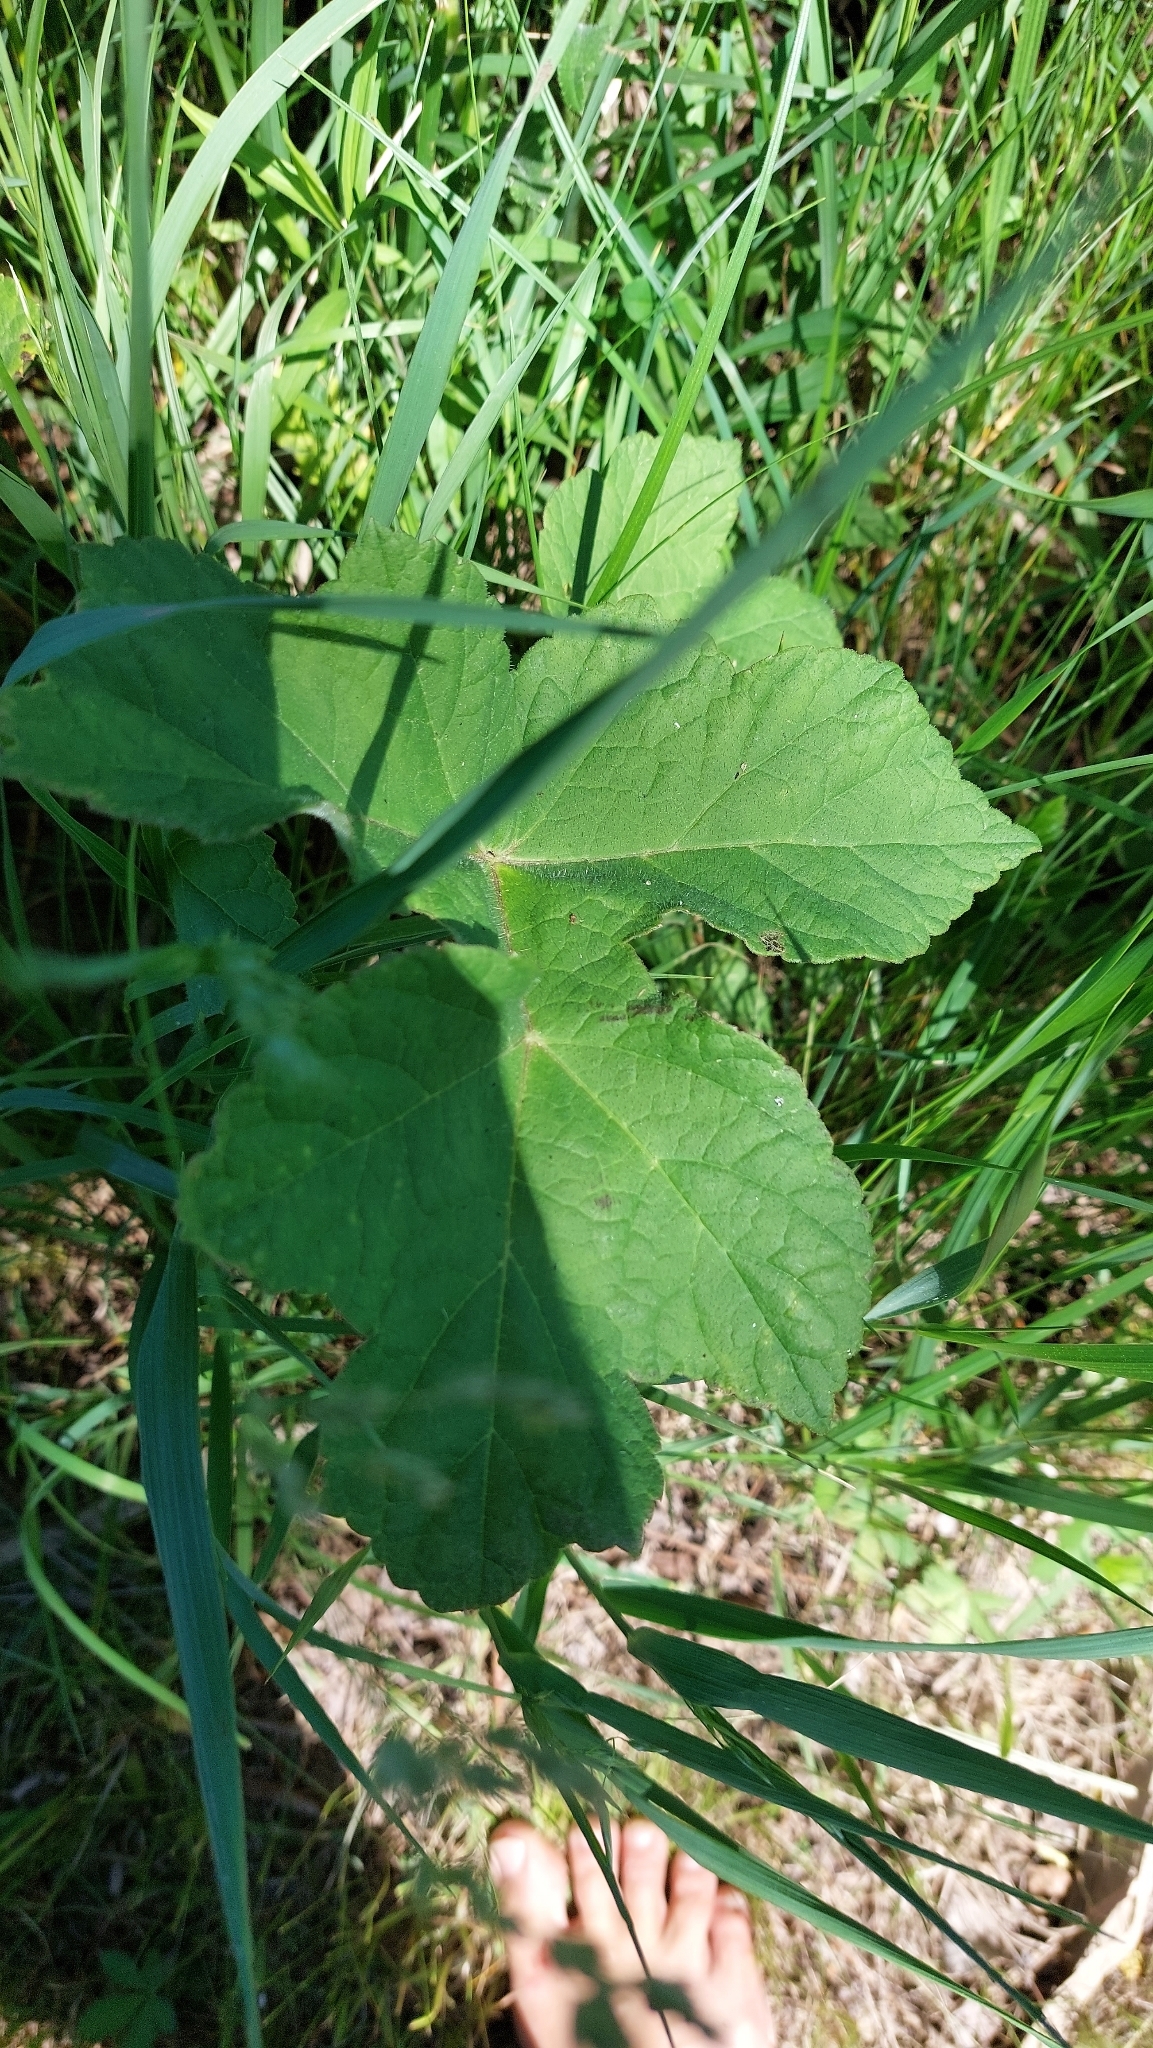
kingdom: Plantae
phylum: Tracheophyta
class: Magnoliopsida
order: Apiales
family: Apiaceae
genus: Heracleum
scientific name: Heracleum sphondylium
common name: Hogweed
